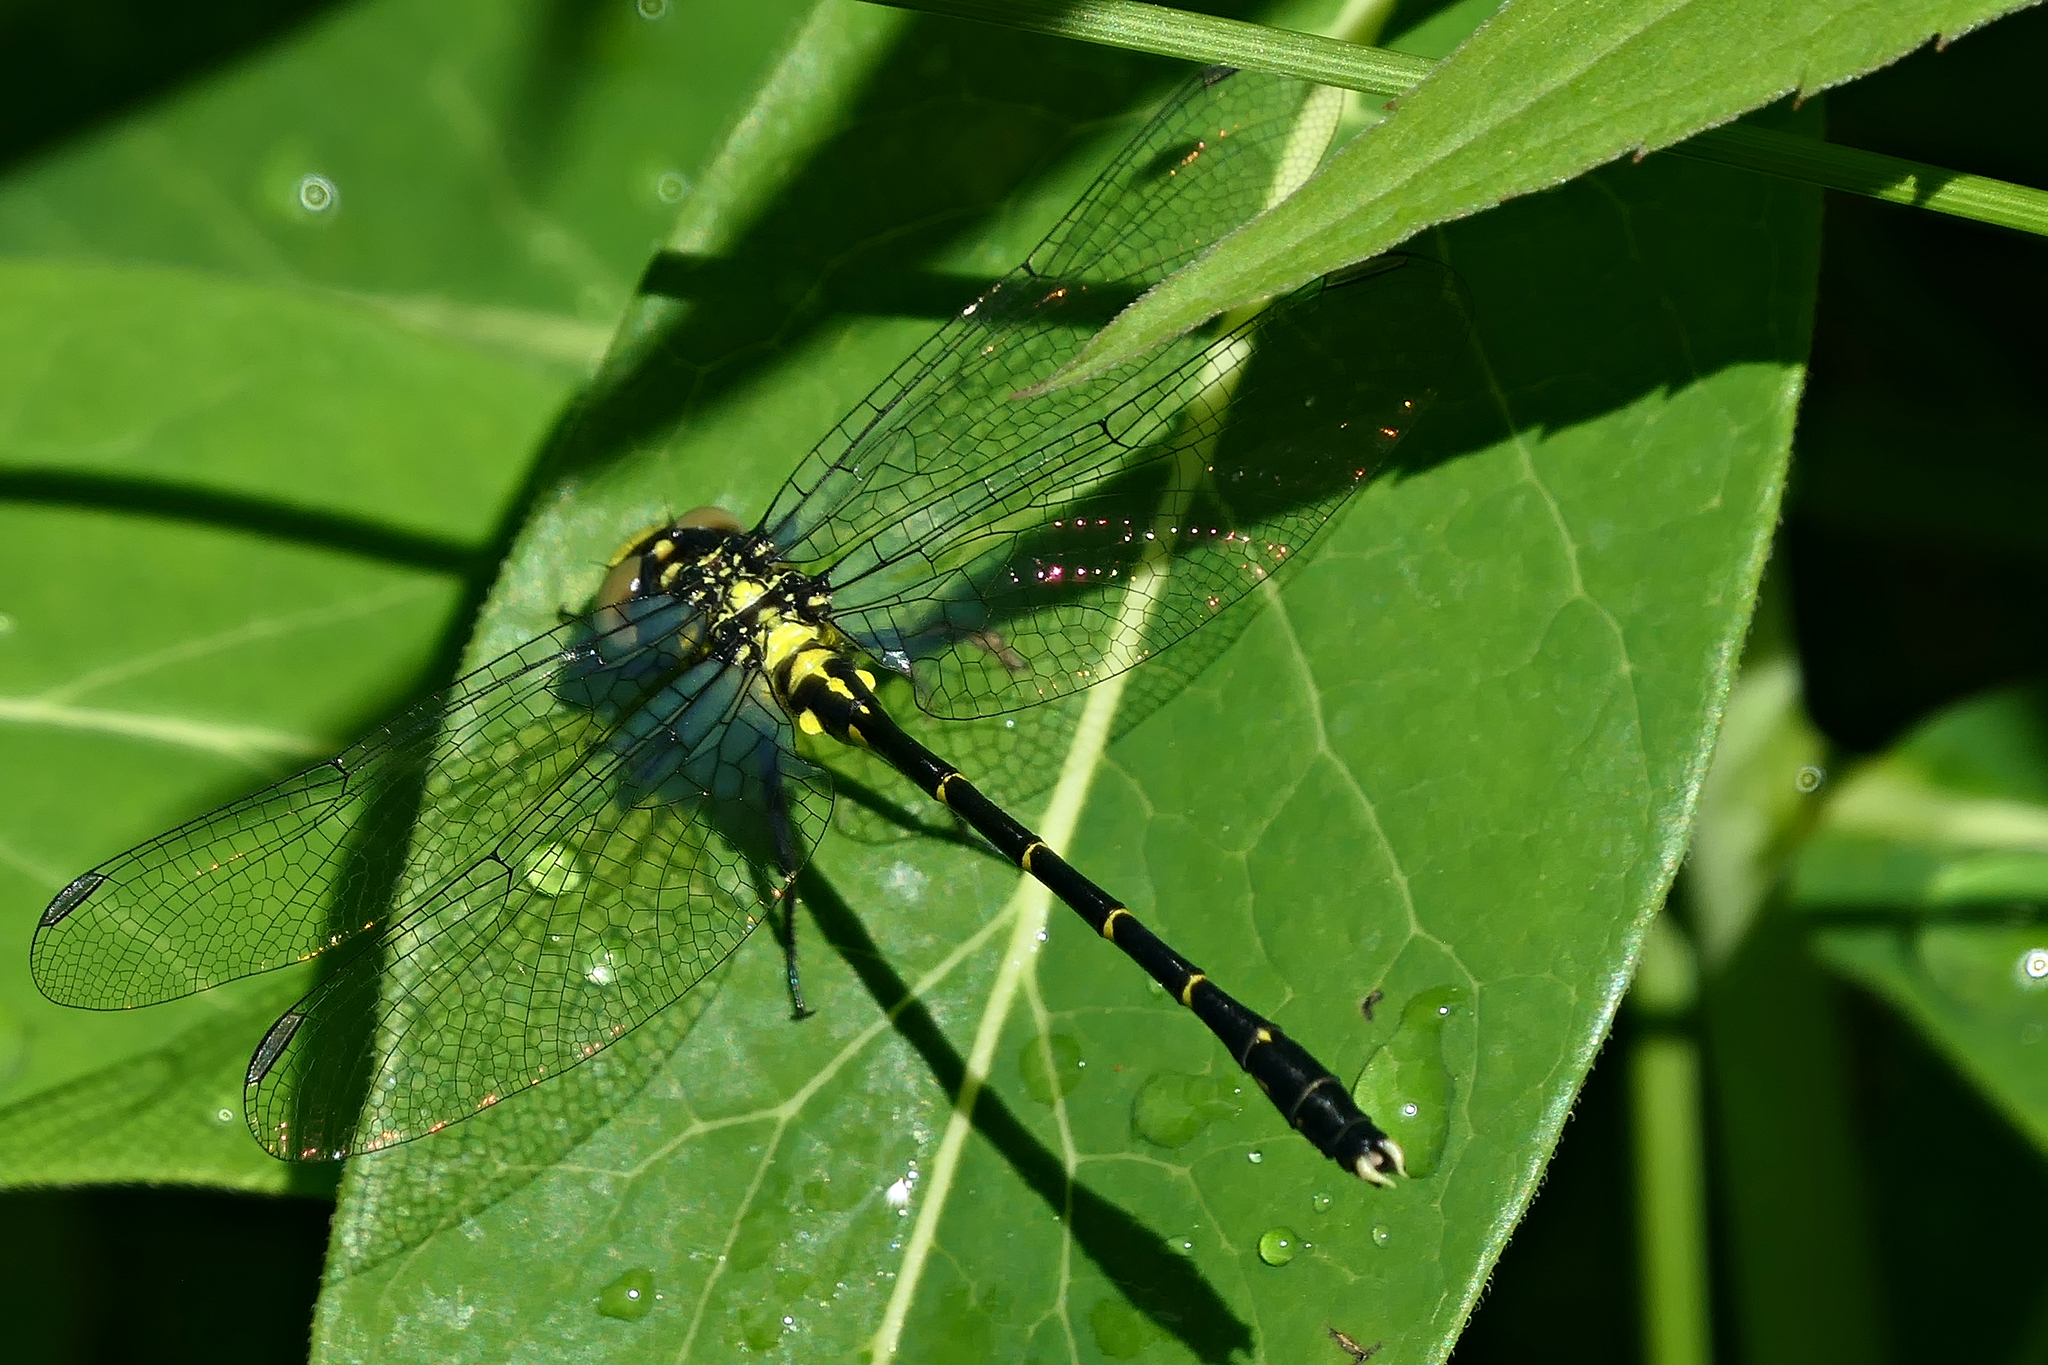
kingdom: Animalia
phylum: Arthropoda
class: Insecta
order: Odonata
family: Gomphidae
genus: Stylogomphus
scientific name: Stylogomphus albistylus
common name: Eastern least clubtail
